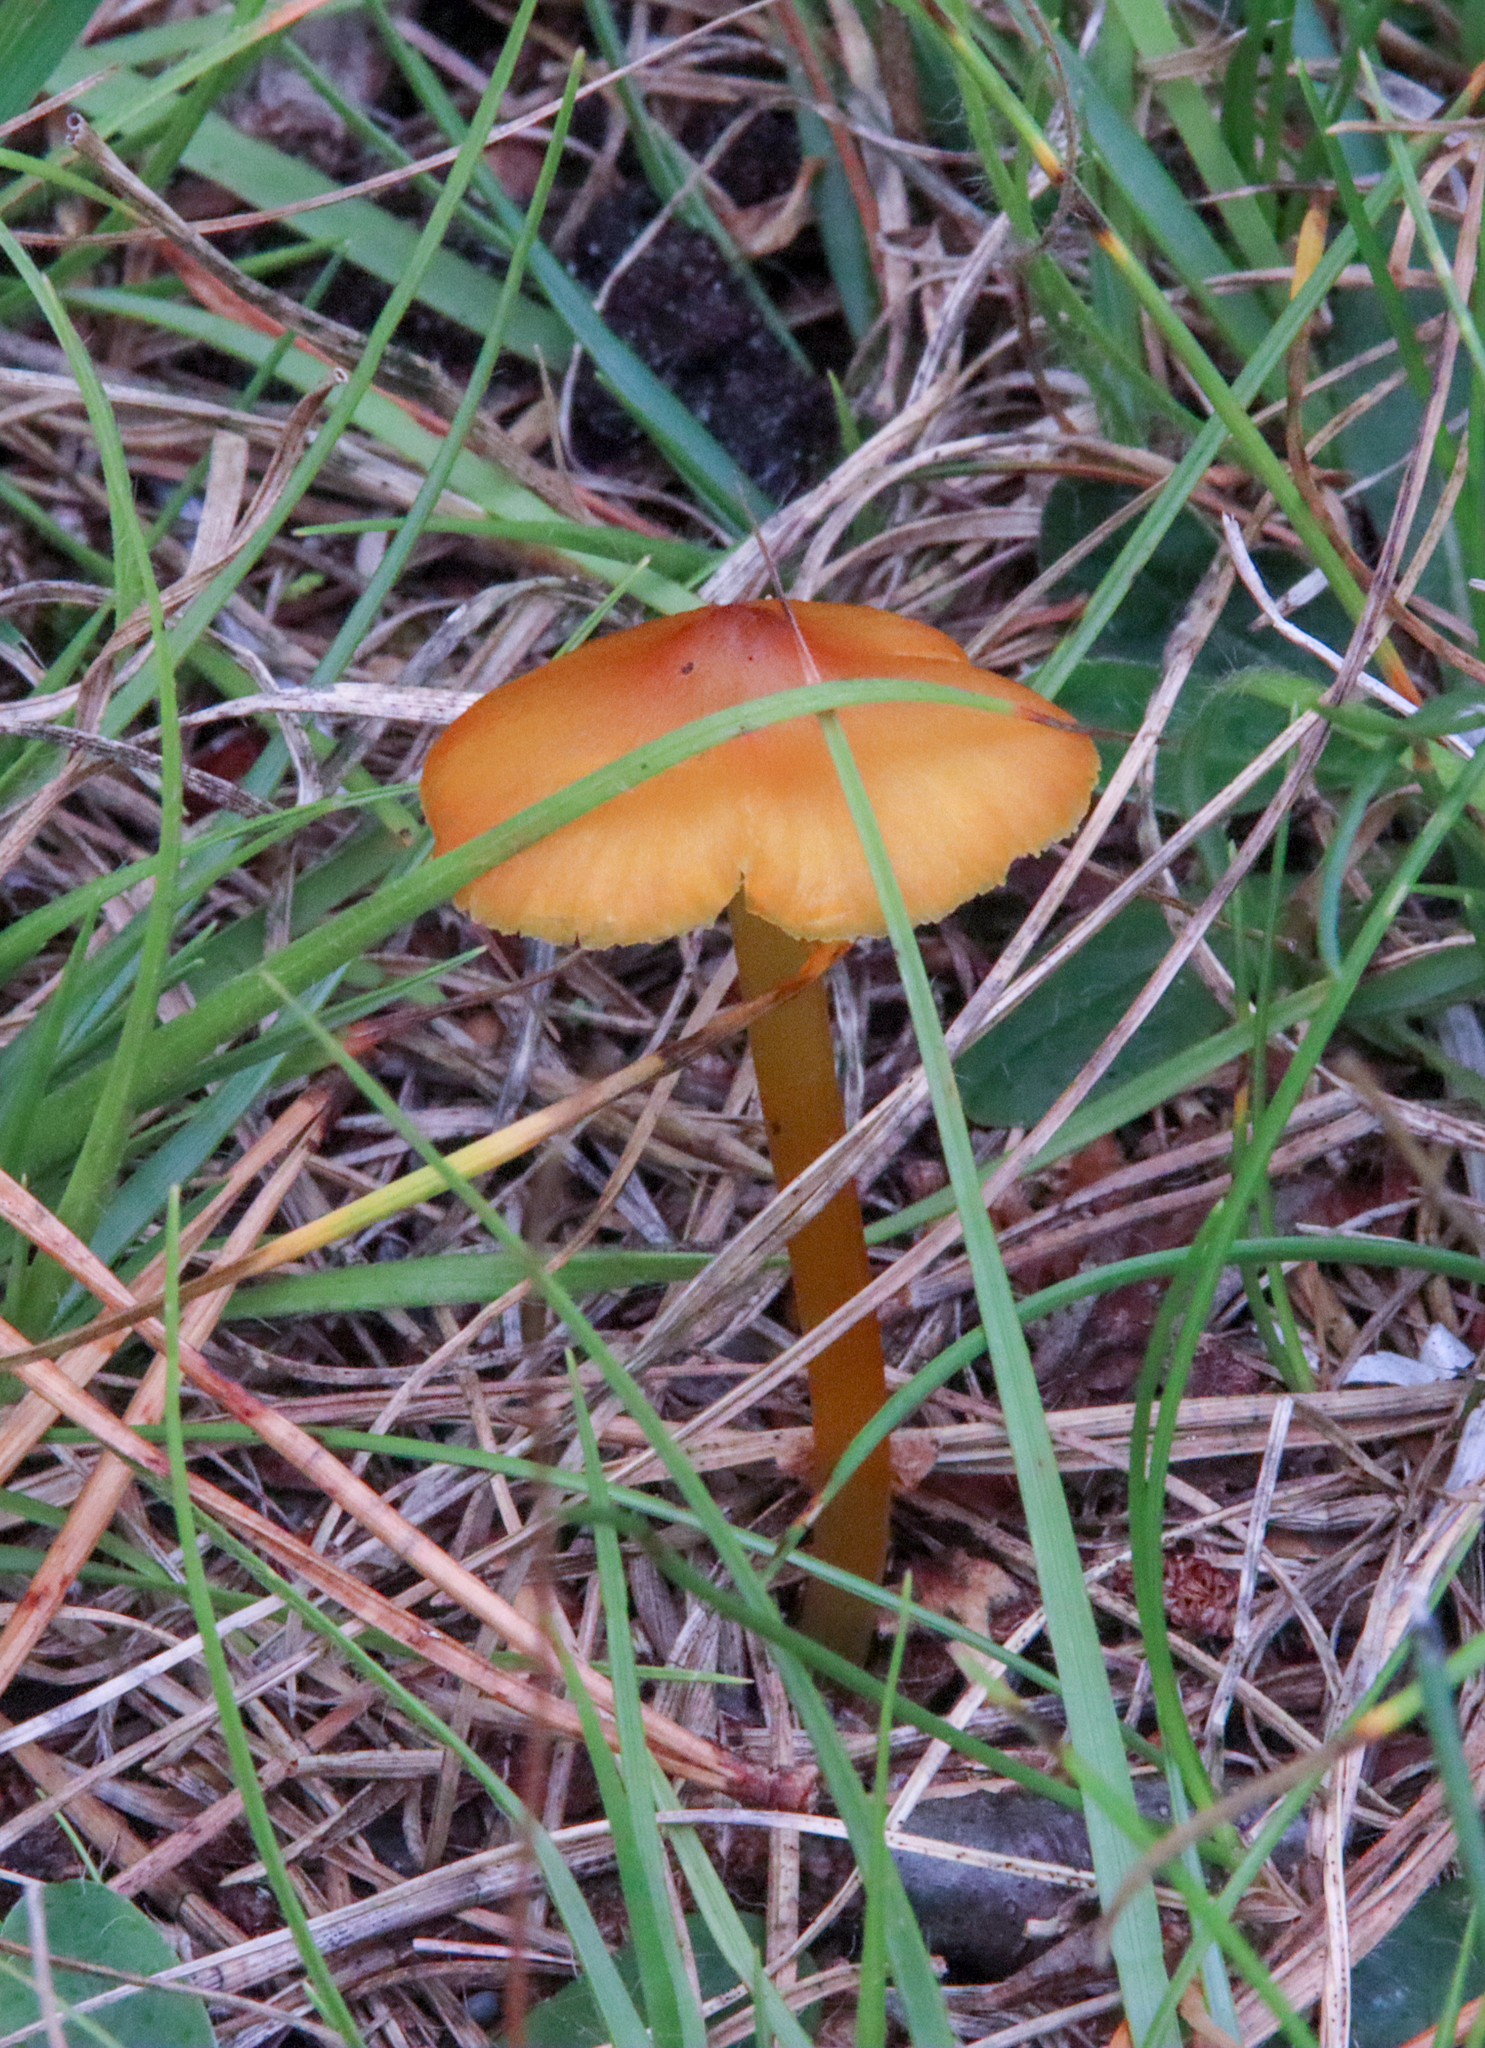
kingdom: Fungi
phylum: Basidiomycota
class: Agaricomycetes
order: Agaricales
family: Hygrophoraceae
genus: Hygrocybe
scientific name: Hygrocybe conica
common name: Blackening wax-cap
